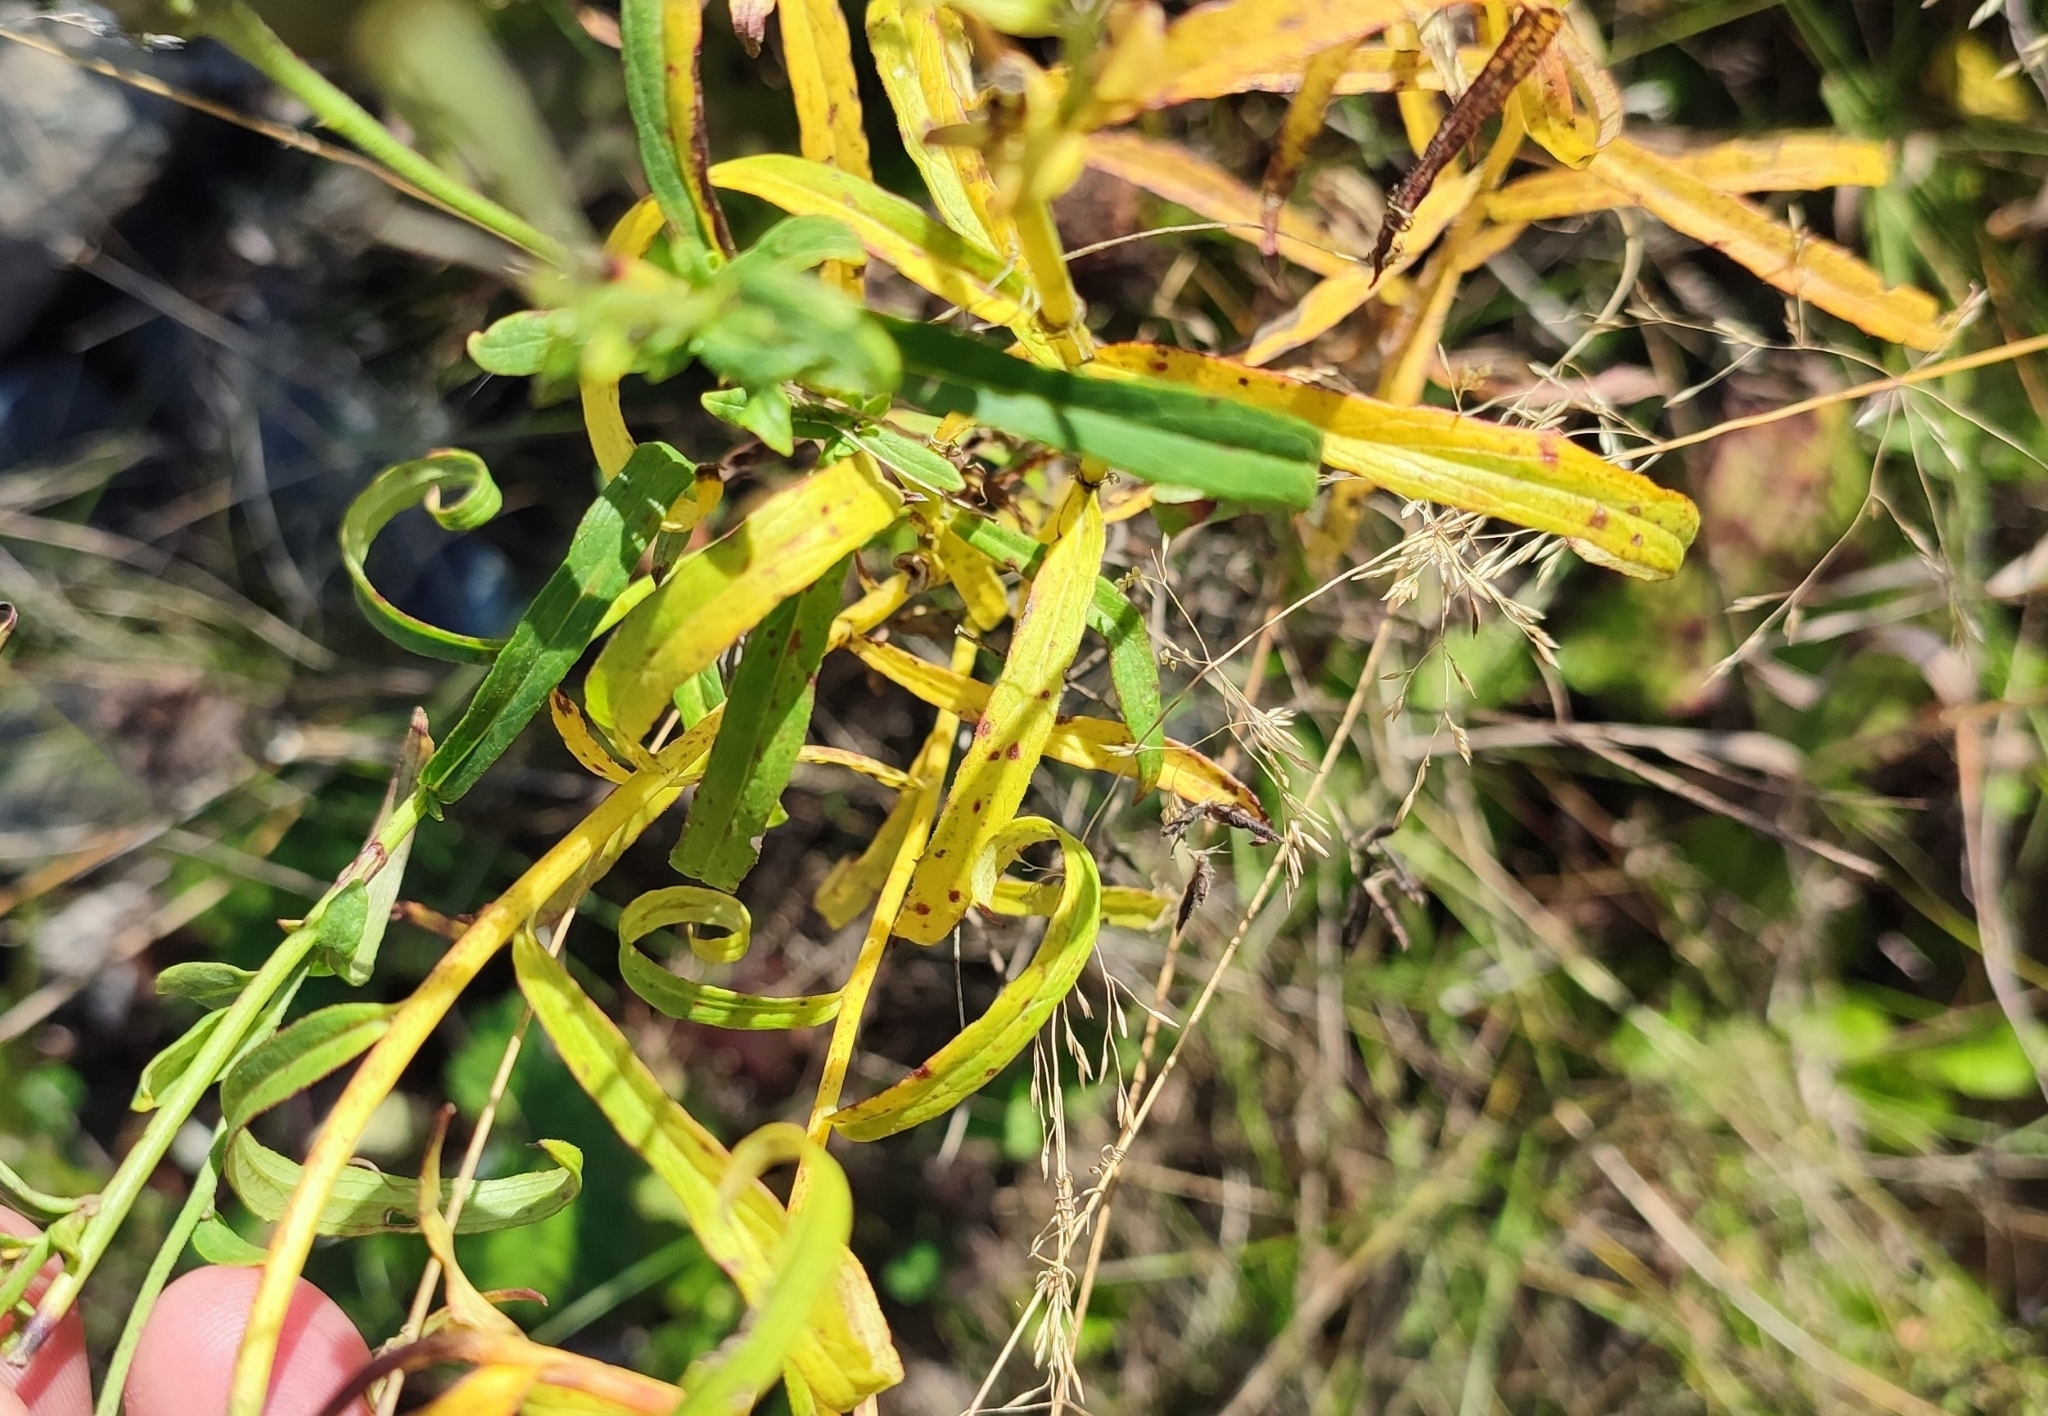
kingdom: Plantae
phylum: Tracheophyta
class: Magnoliopsida
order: Asterales
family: Asteraceae
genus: Hieracium
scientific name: Hieracium umbellatum
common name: Northern hawkweed
